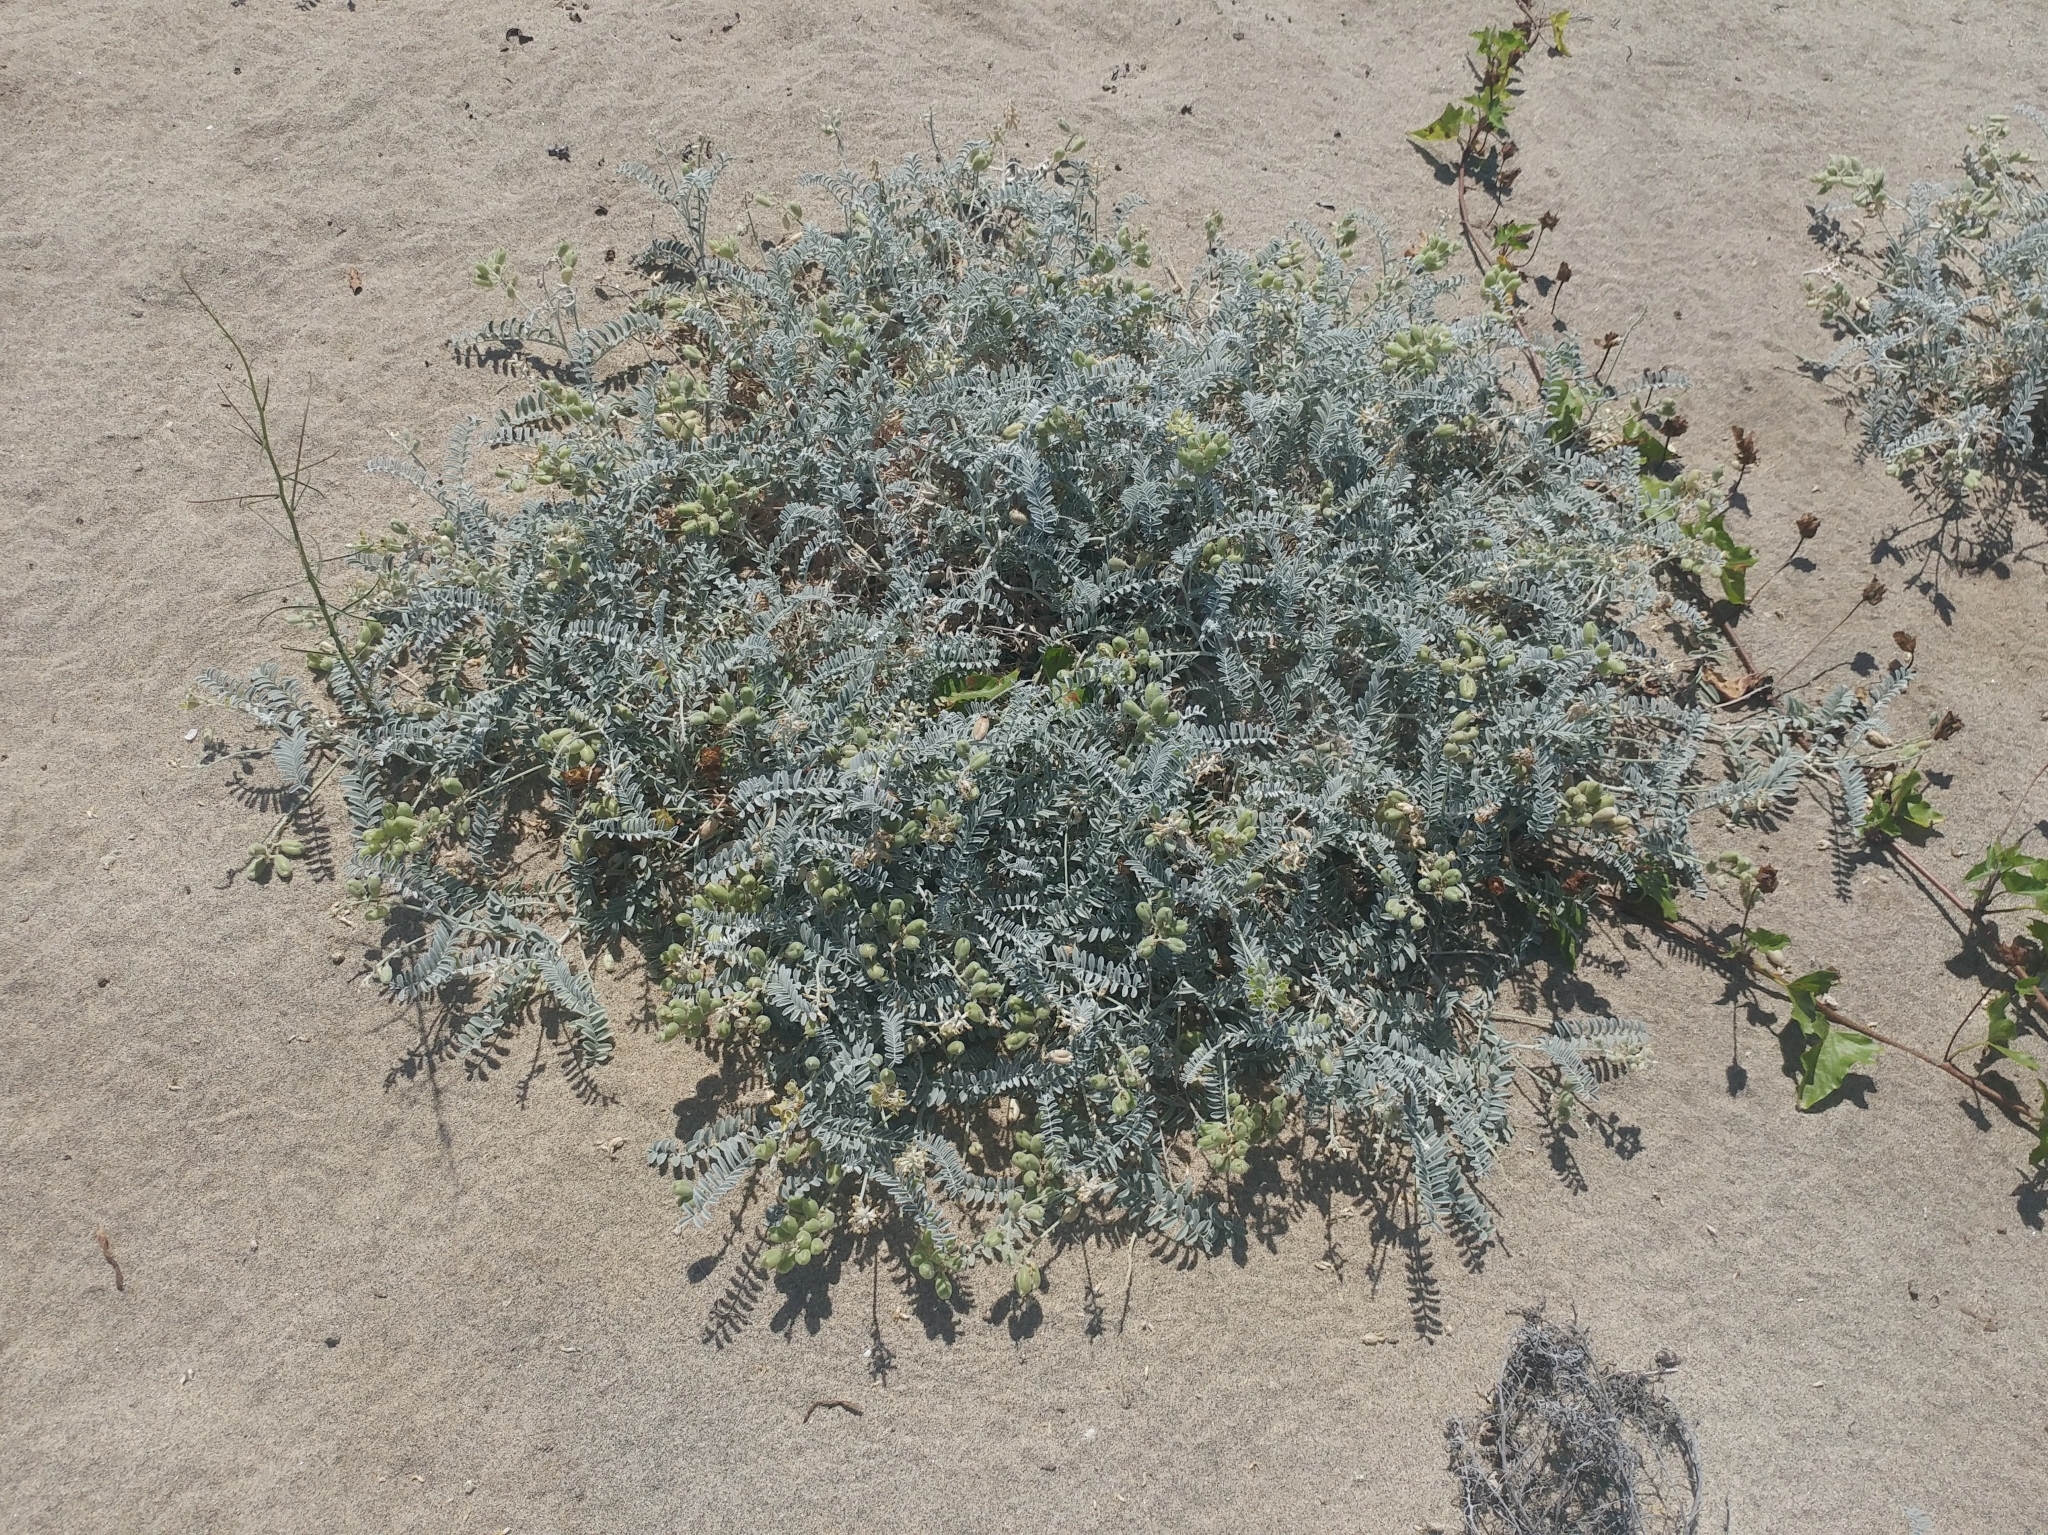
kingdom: Plantae
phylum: Tracheophyta
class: Magnoliopsida
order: Fabales
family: Fabaceae
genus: Astragalus
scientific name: Astragalus miguelensis
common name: San miguel milk-vetch
